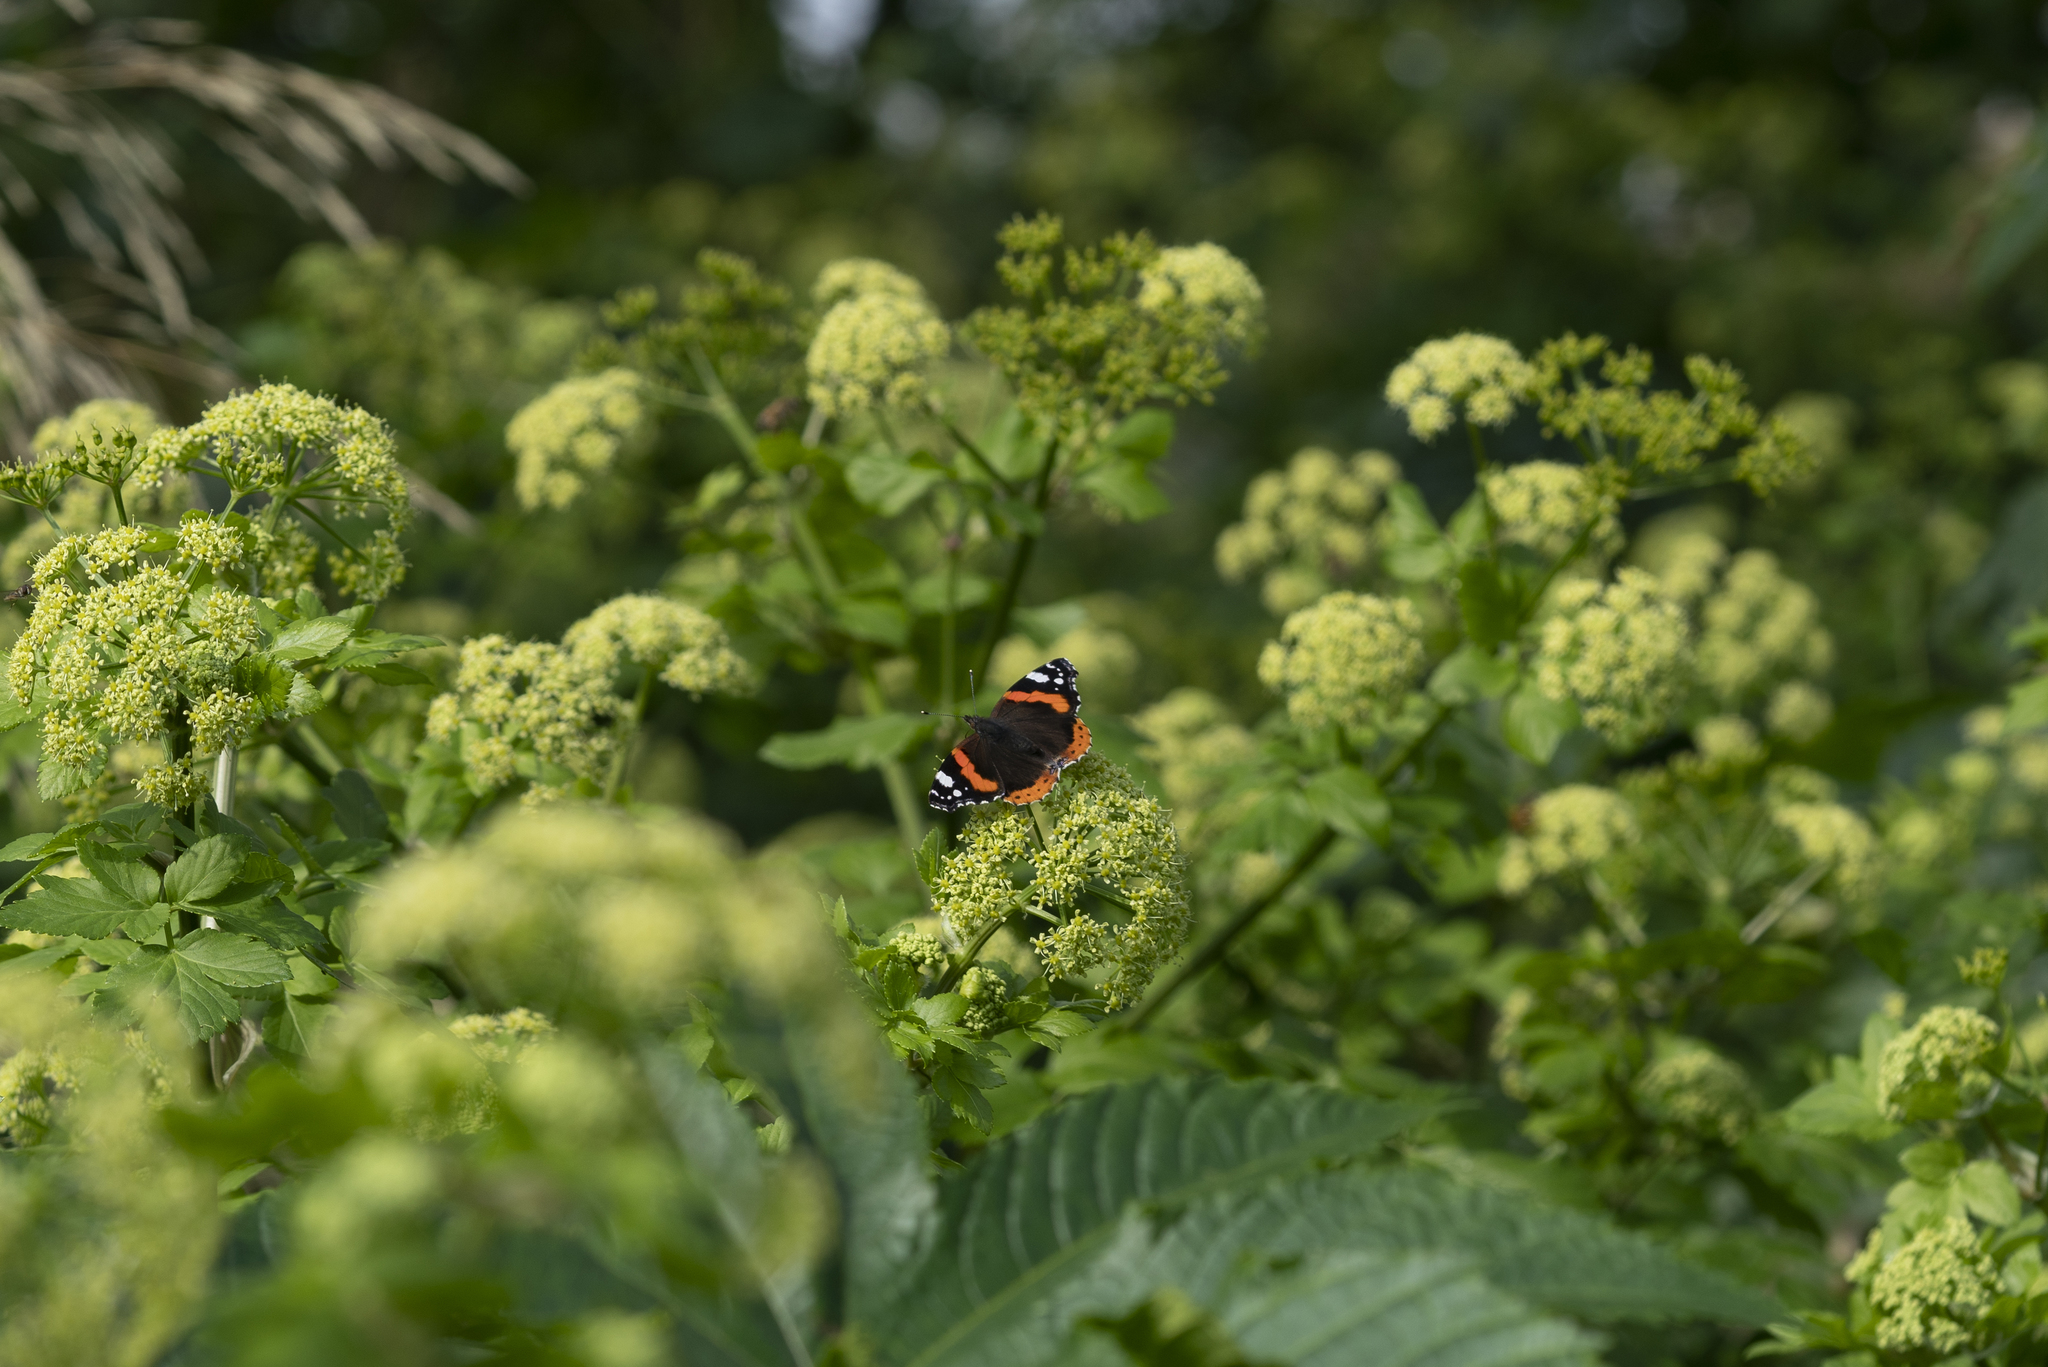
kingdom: Animalia
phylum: Arthropoda
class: Insecta
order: Lepidoptera
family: Nymphalidae
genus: Vanessa
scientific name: Vanessa atalanta
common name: Red admiral
